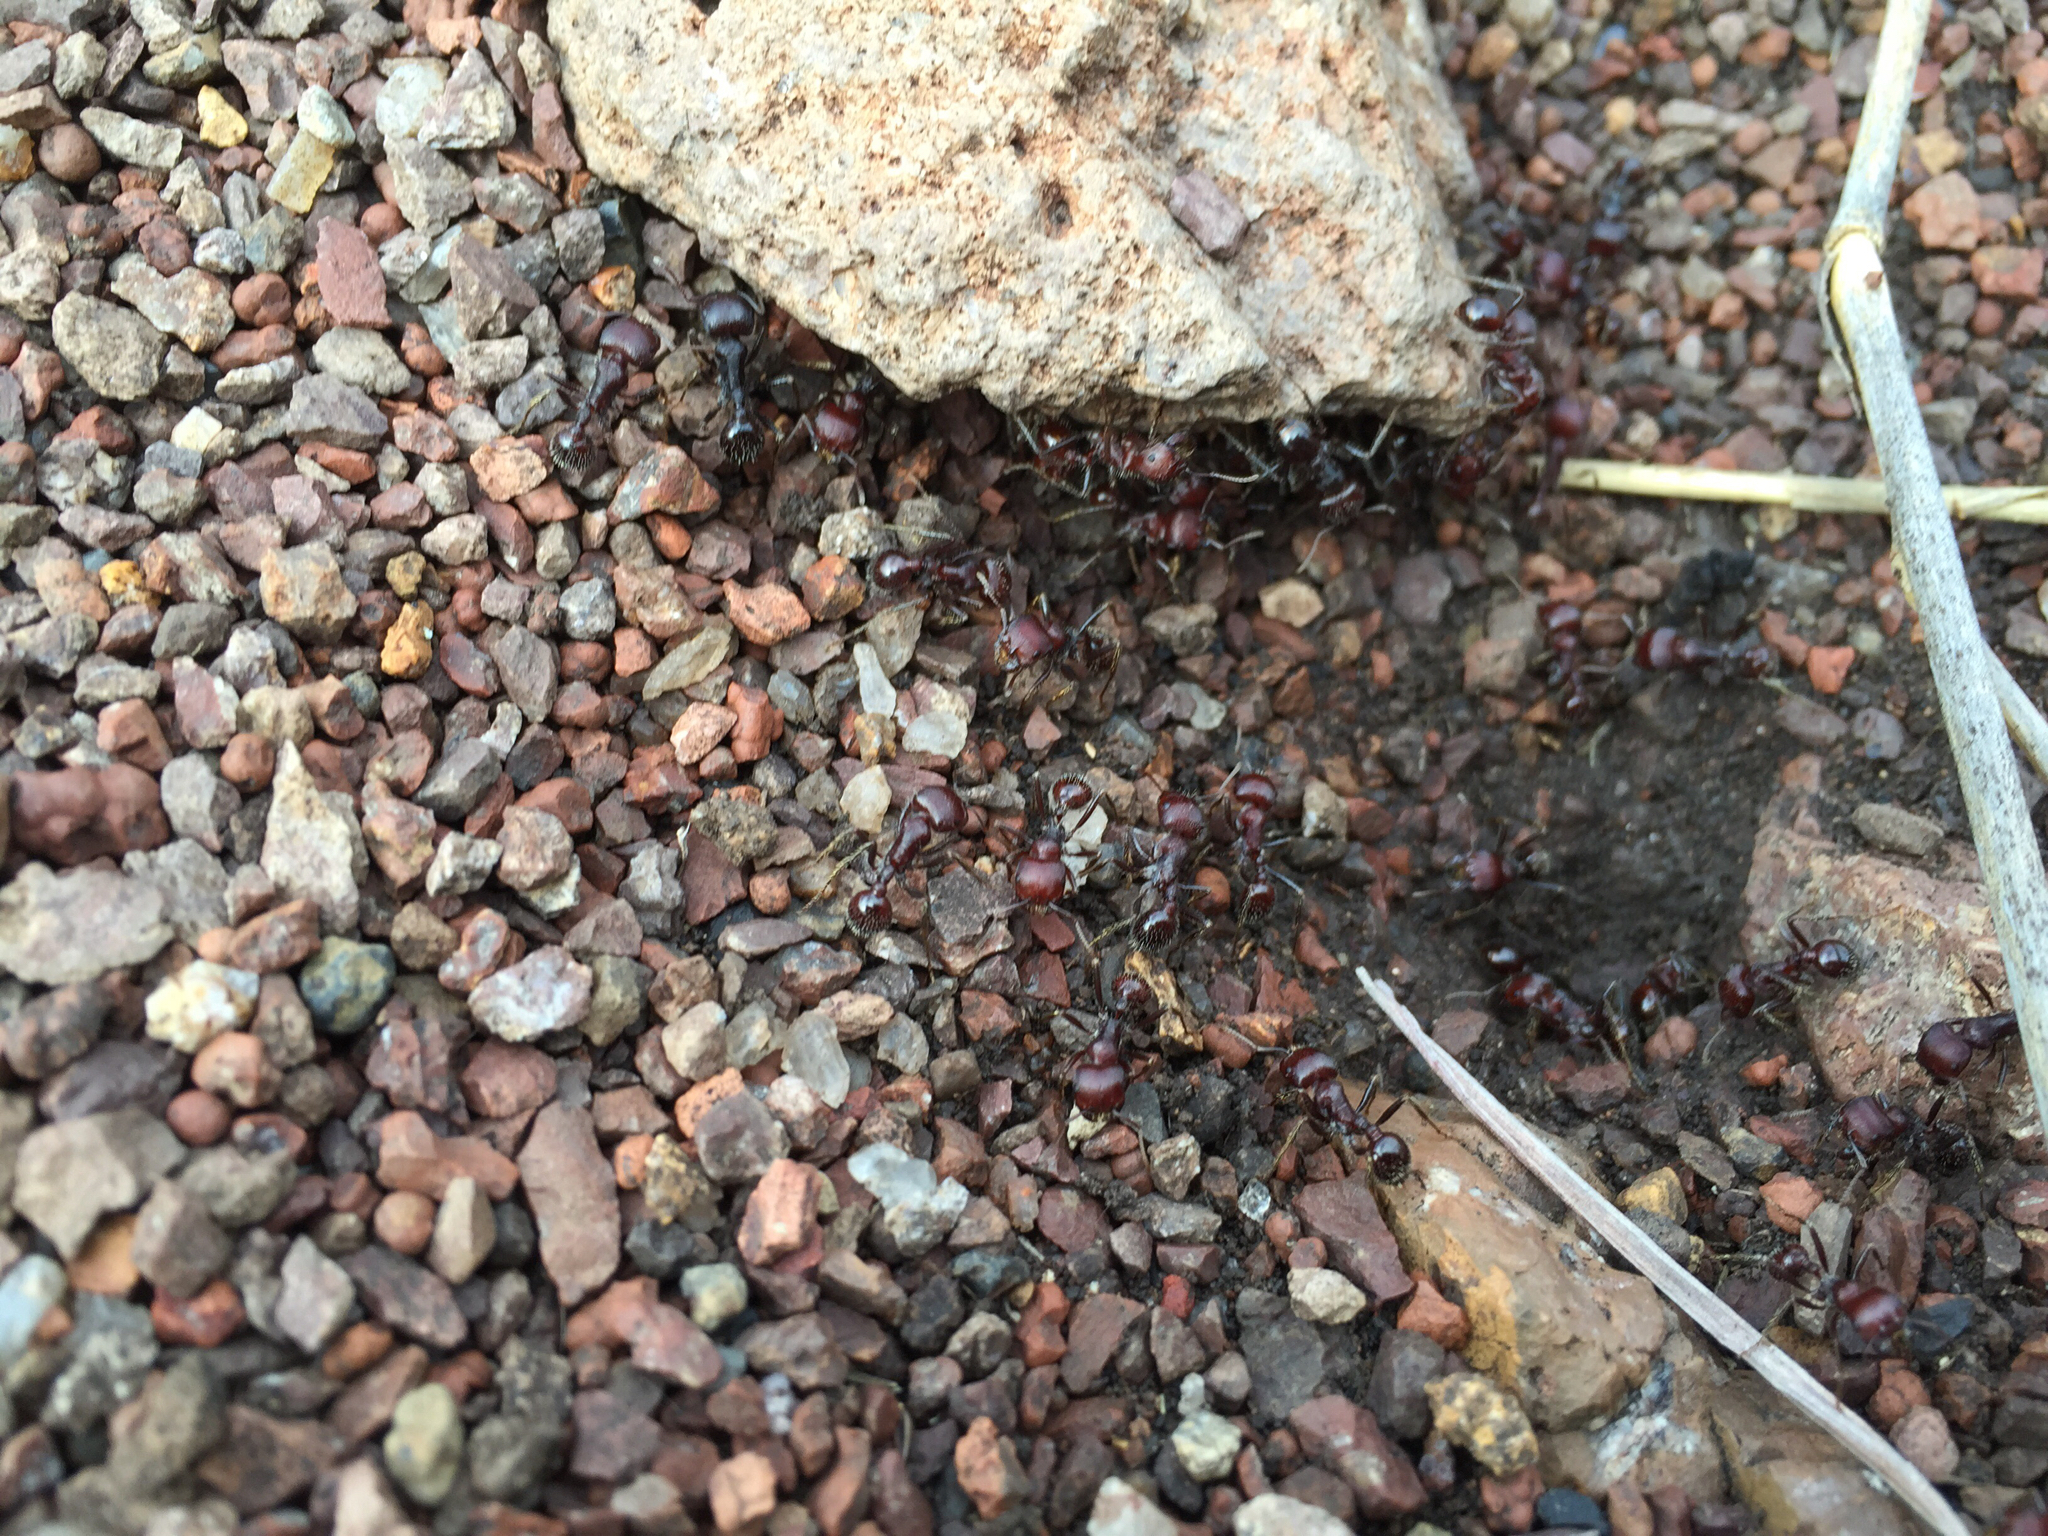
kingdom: Animalia
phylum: Arthropoda
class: Insecta
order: Hymenoptera
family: Formicidae
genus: Pogonomyrmex
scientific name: Pogonomyrmex
